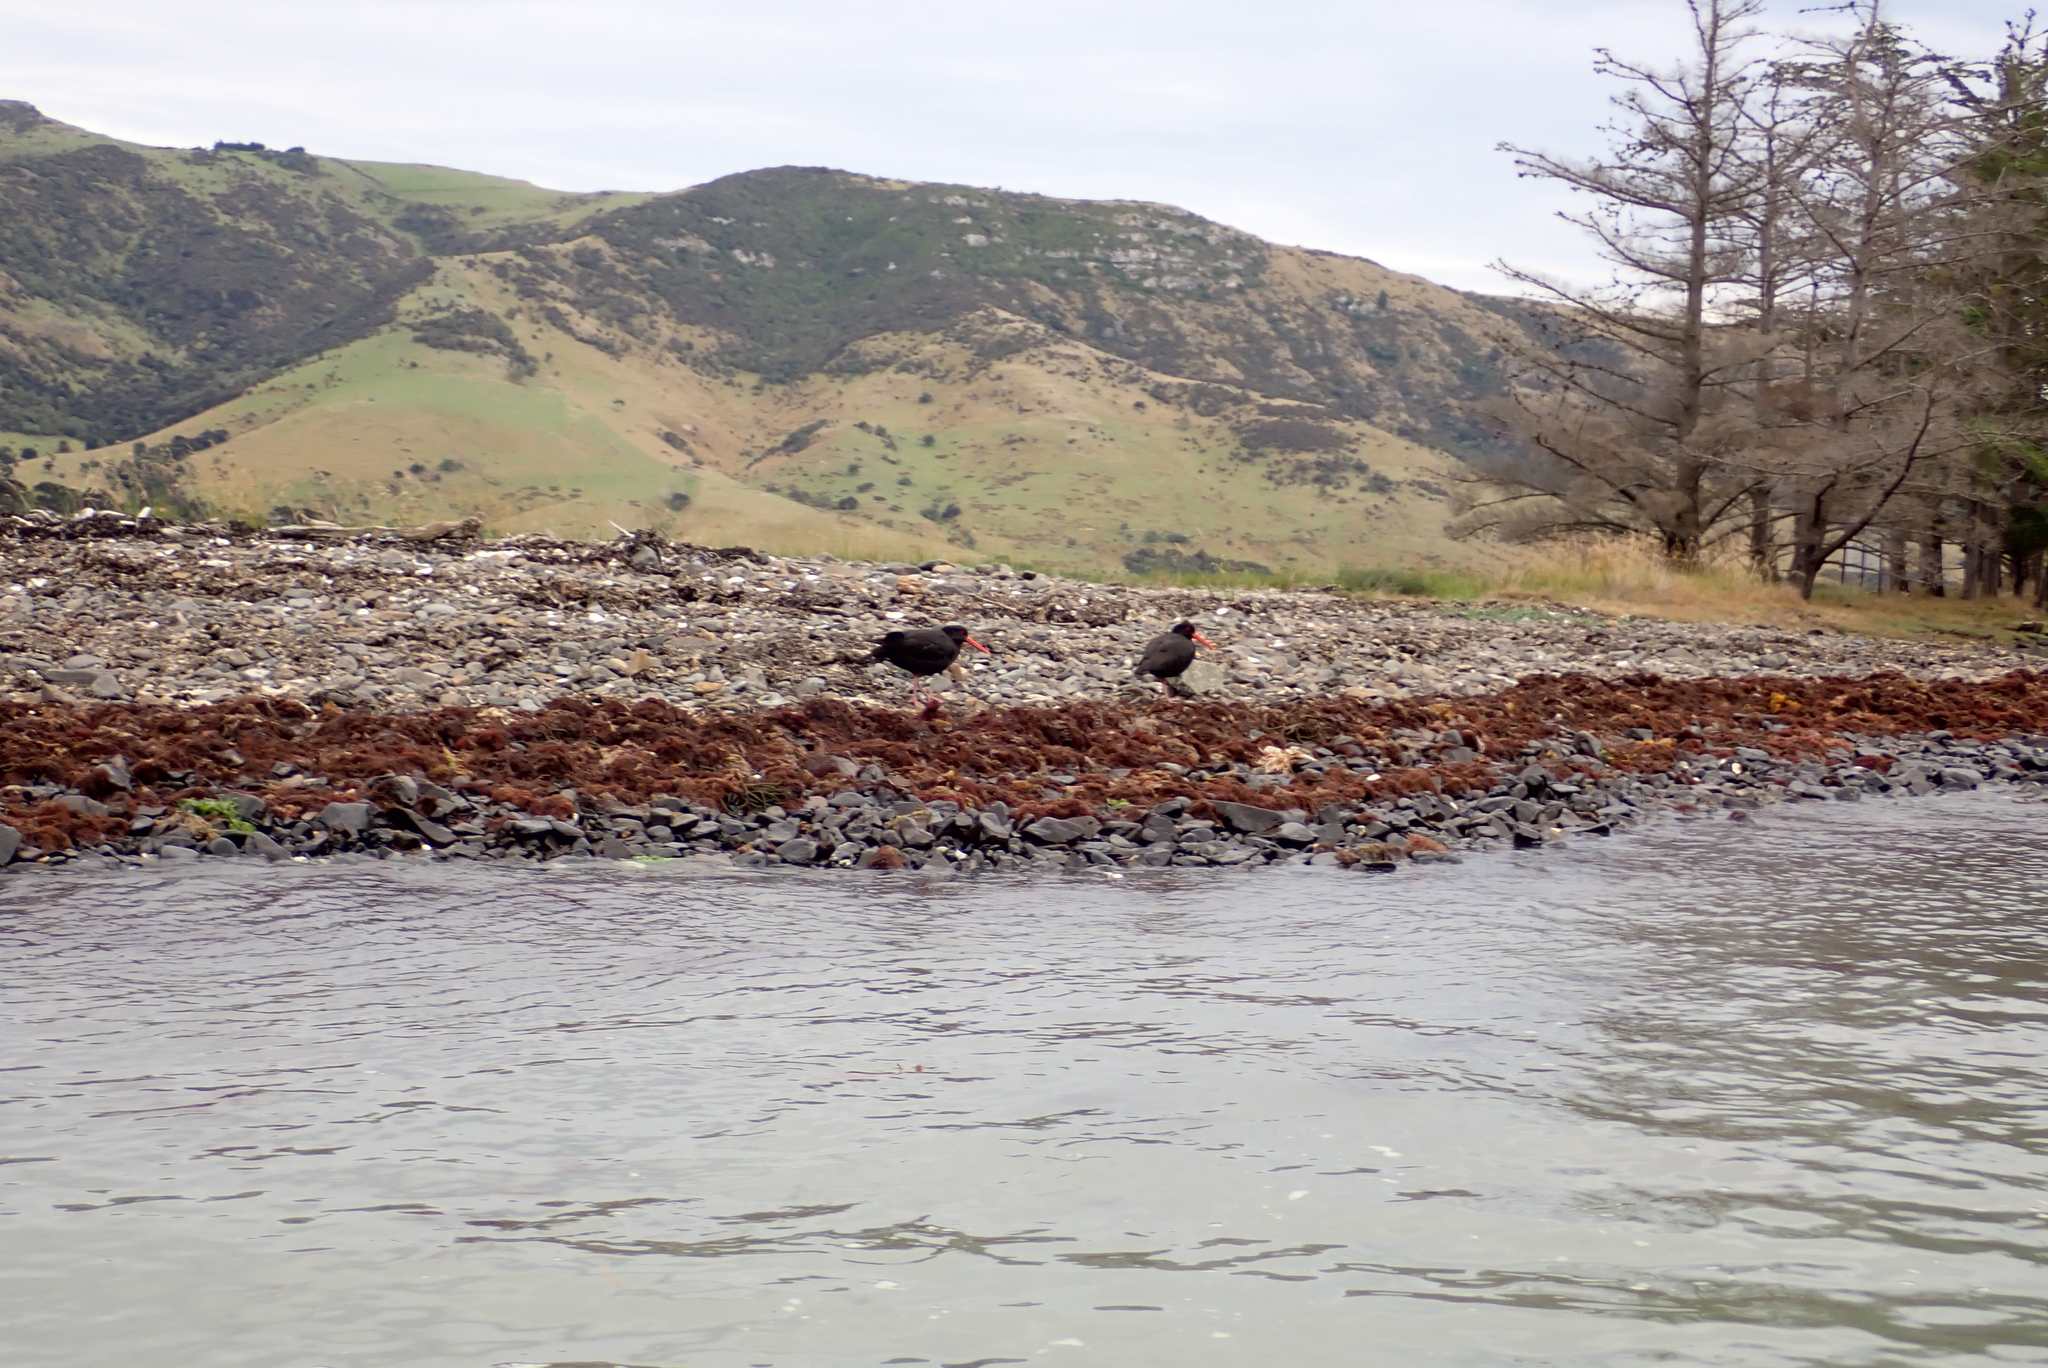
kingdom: Animalia
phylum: Chordata
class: Aves
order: Charadriiformes
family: Haematopodidae
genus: Haematopus
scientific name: Haematopus unicolor
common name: Variable oystercatcher
